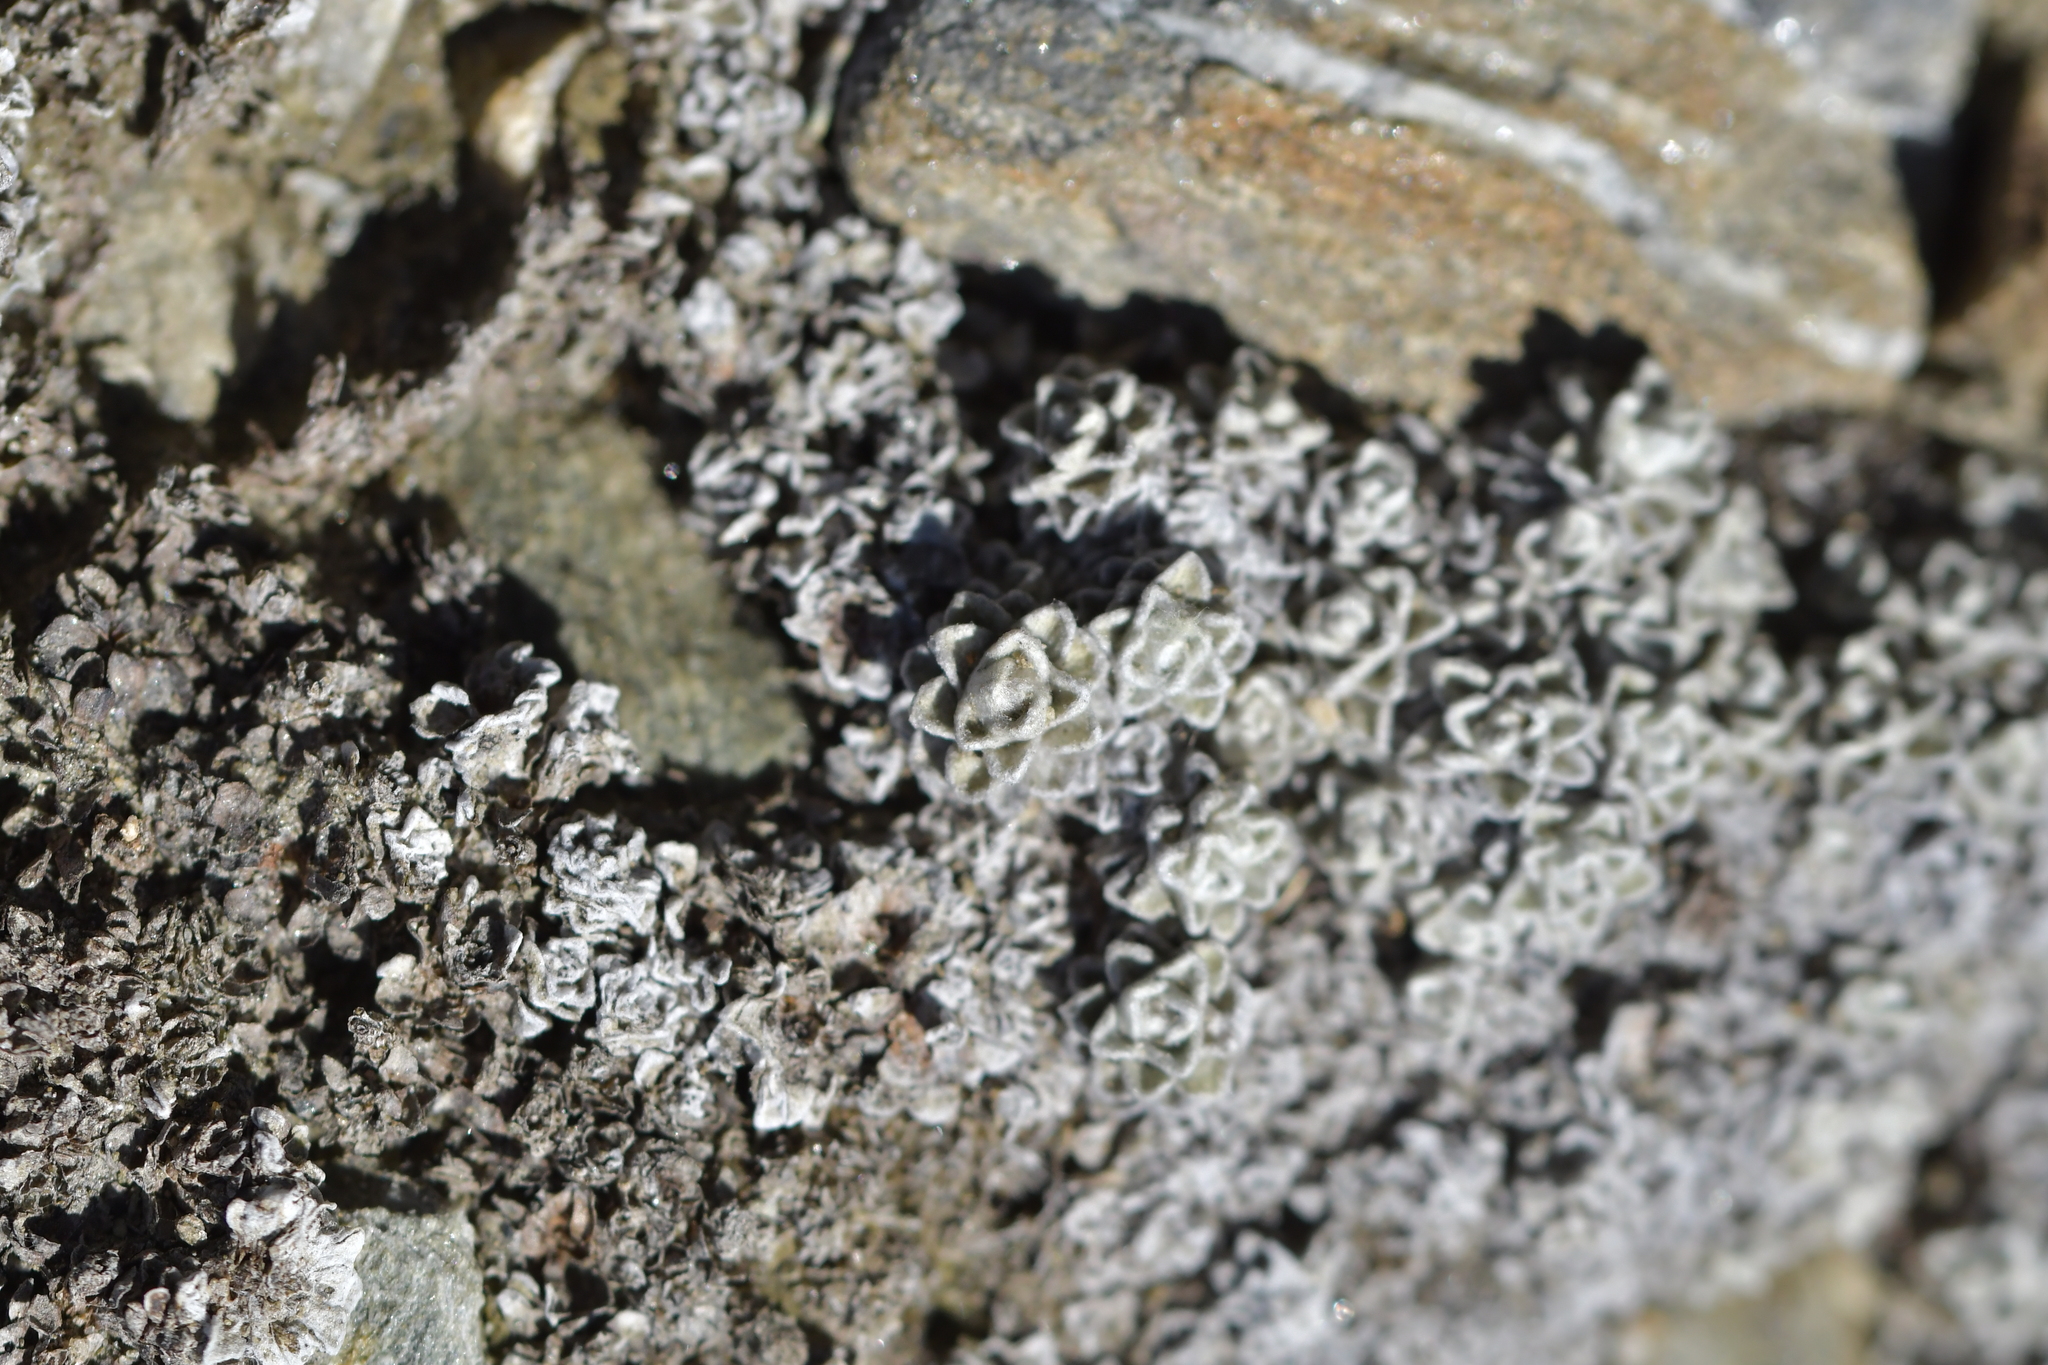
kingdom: Plantae
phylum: Tracheophyta
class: Magnoliopsida
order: Asterales
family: Asteraceae
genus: Raoulia
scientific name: Raoulia youngii
